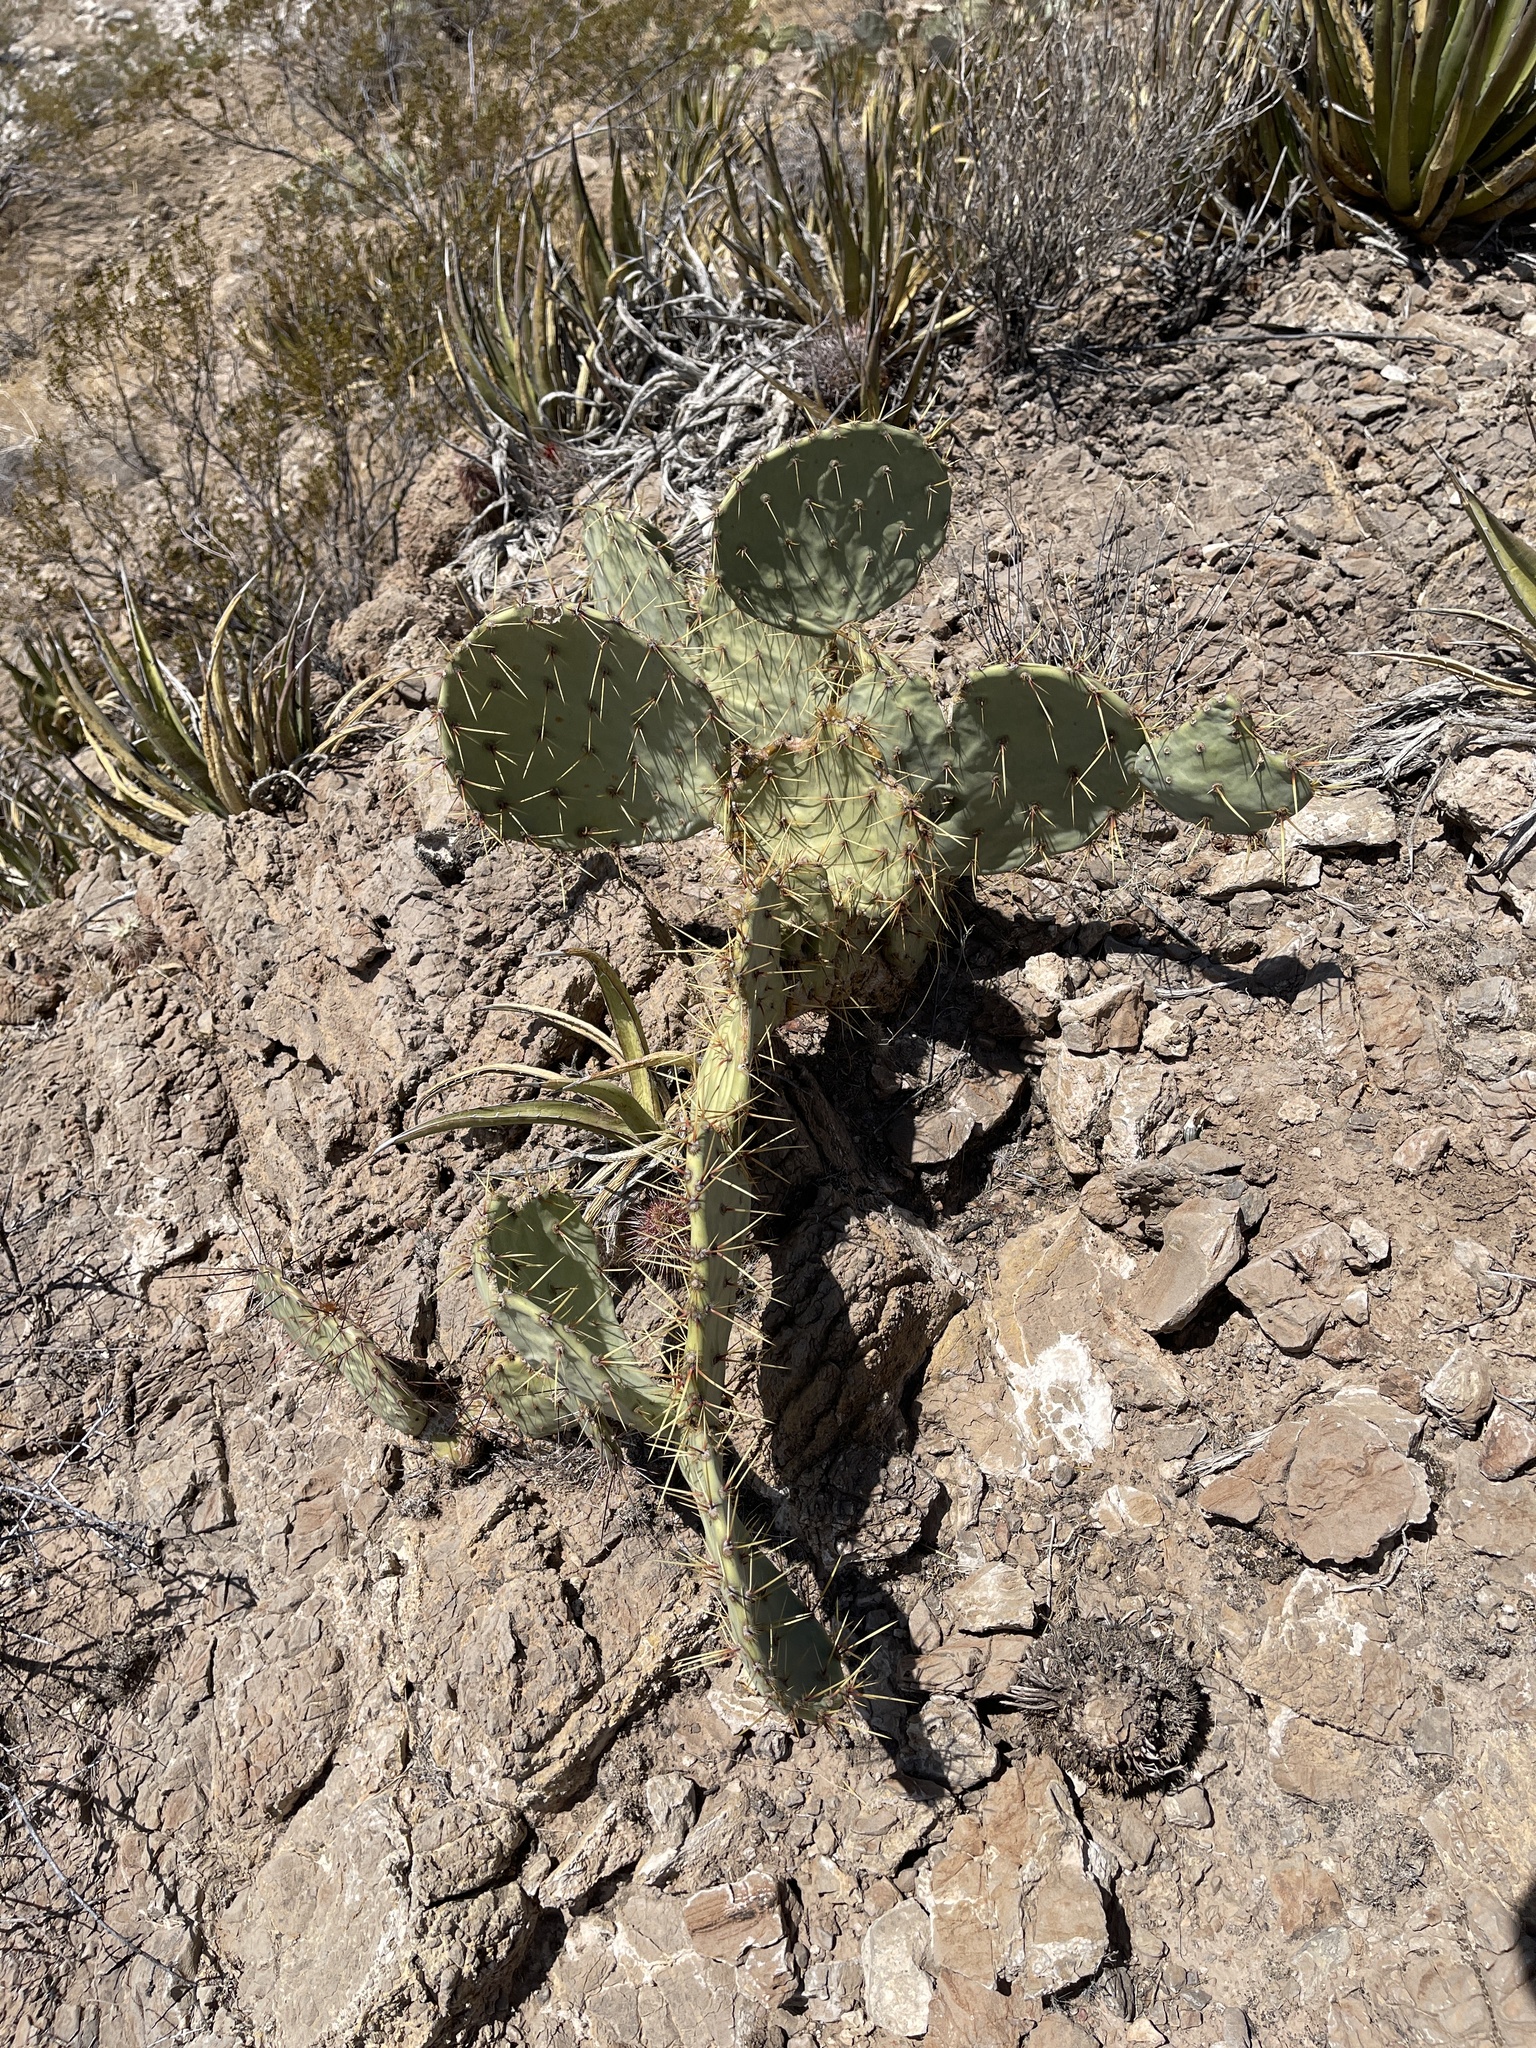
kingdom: Plantae
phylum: Tracheophyta
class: Magnoliopsida
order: Caryophyllales
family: Cactaceae
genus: Opuntia
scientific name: Opuntia engelmannii
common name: Cactus-apple
